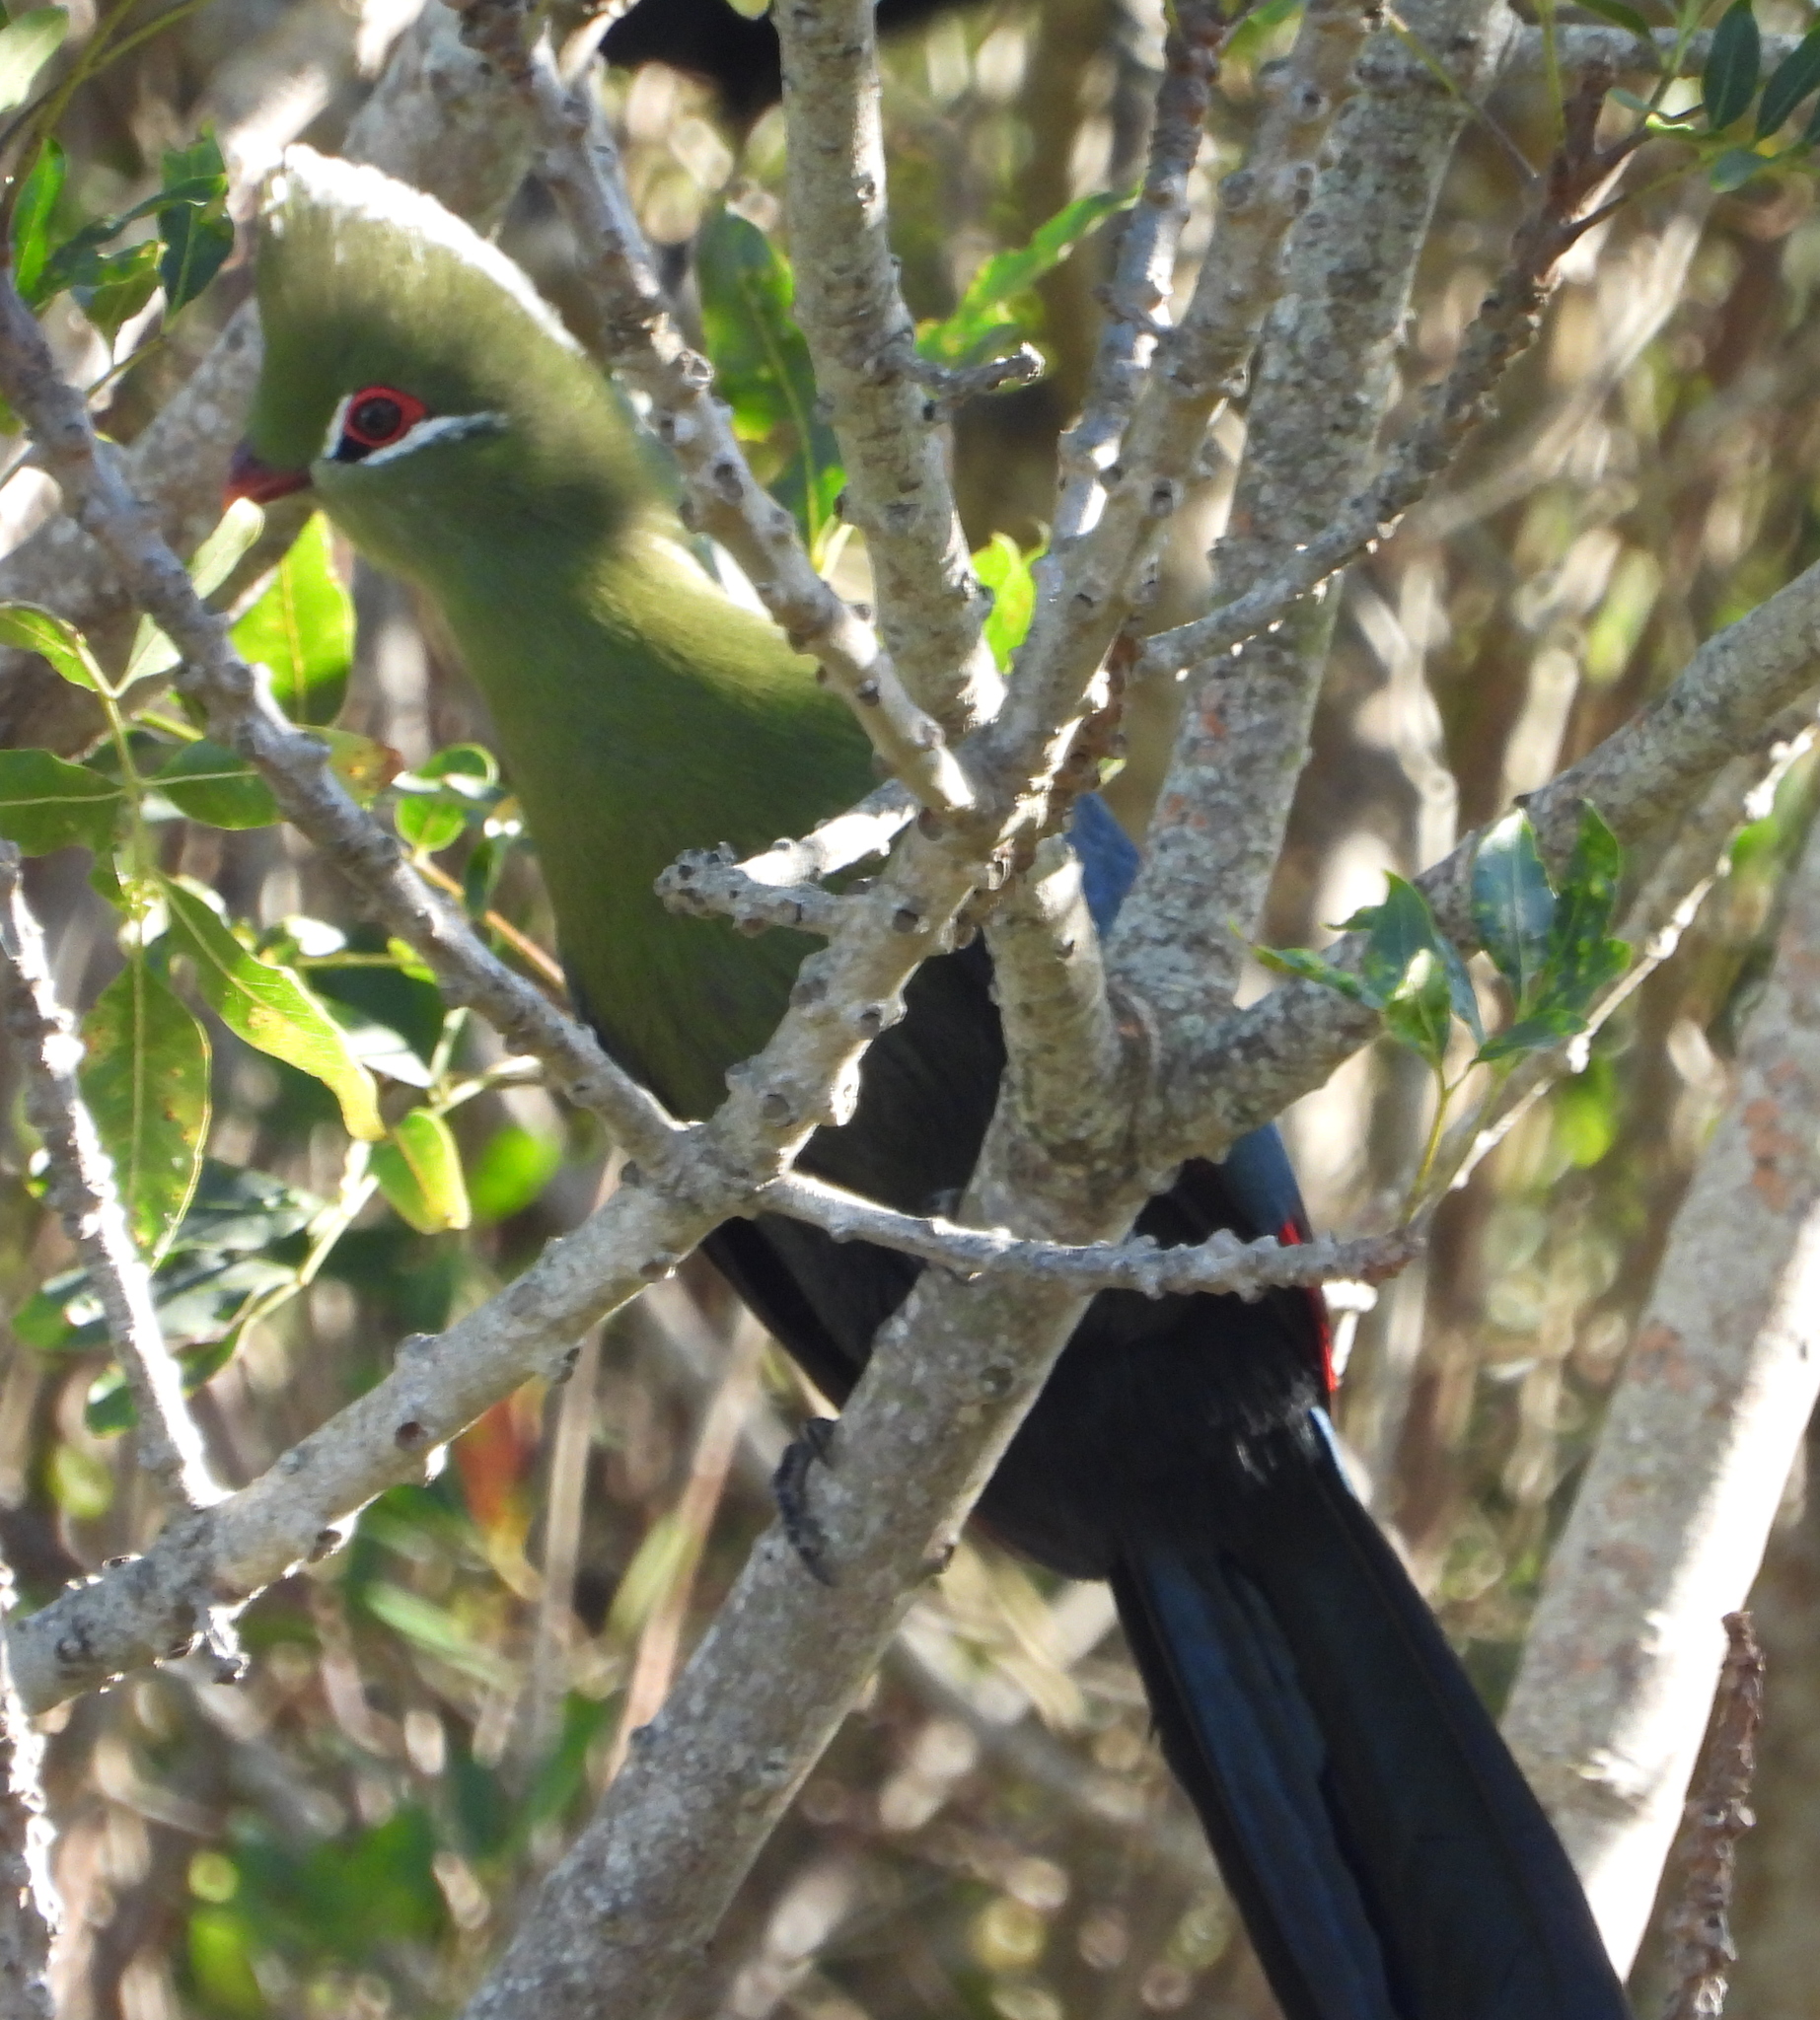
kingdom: Animalia
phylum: Chordata
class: Aves
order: Musophagiformes
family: Musophagidae
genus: Tauraco
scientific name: Tauraco corythaix
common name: Knysna turaco
